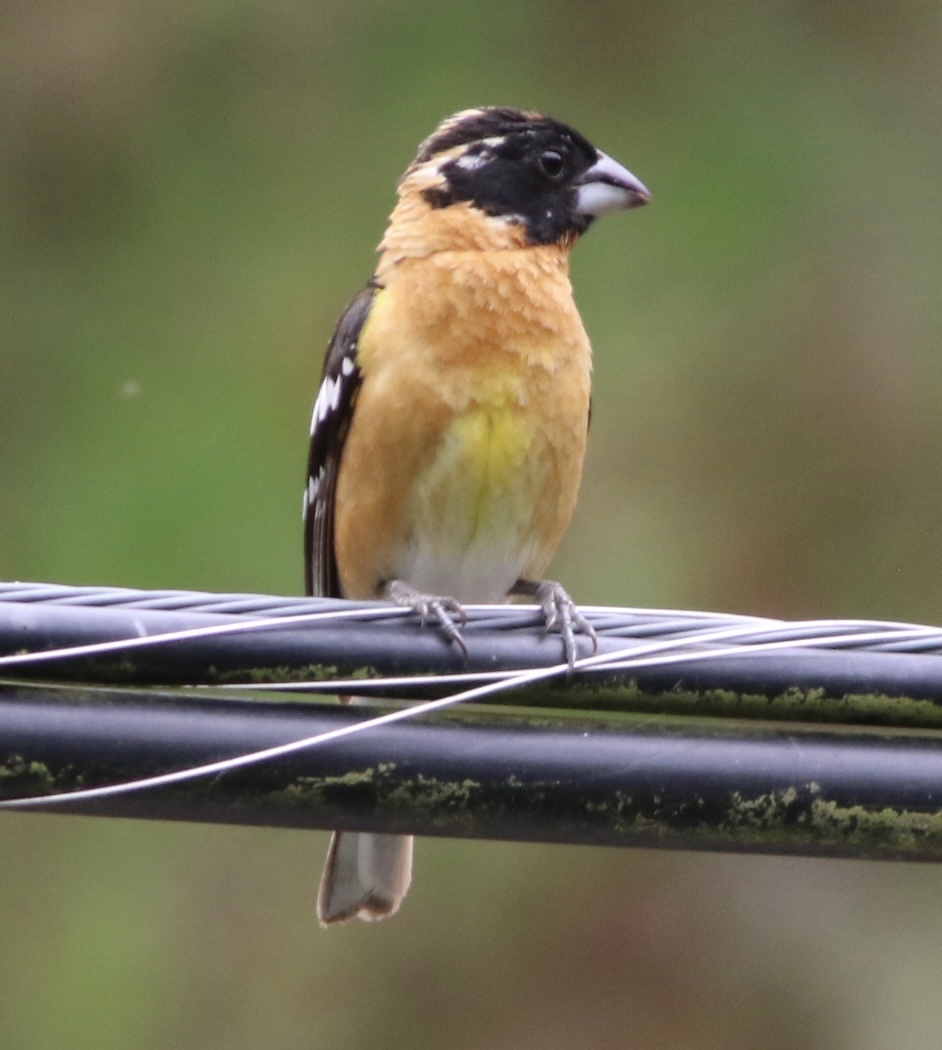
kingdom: Animalia
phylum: Chordata
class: Aves
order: Passeriformes
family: Cardinalidae
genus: Pheucticus
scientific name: Pheucticus melanocephalus
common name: Black-headed grosbeak
